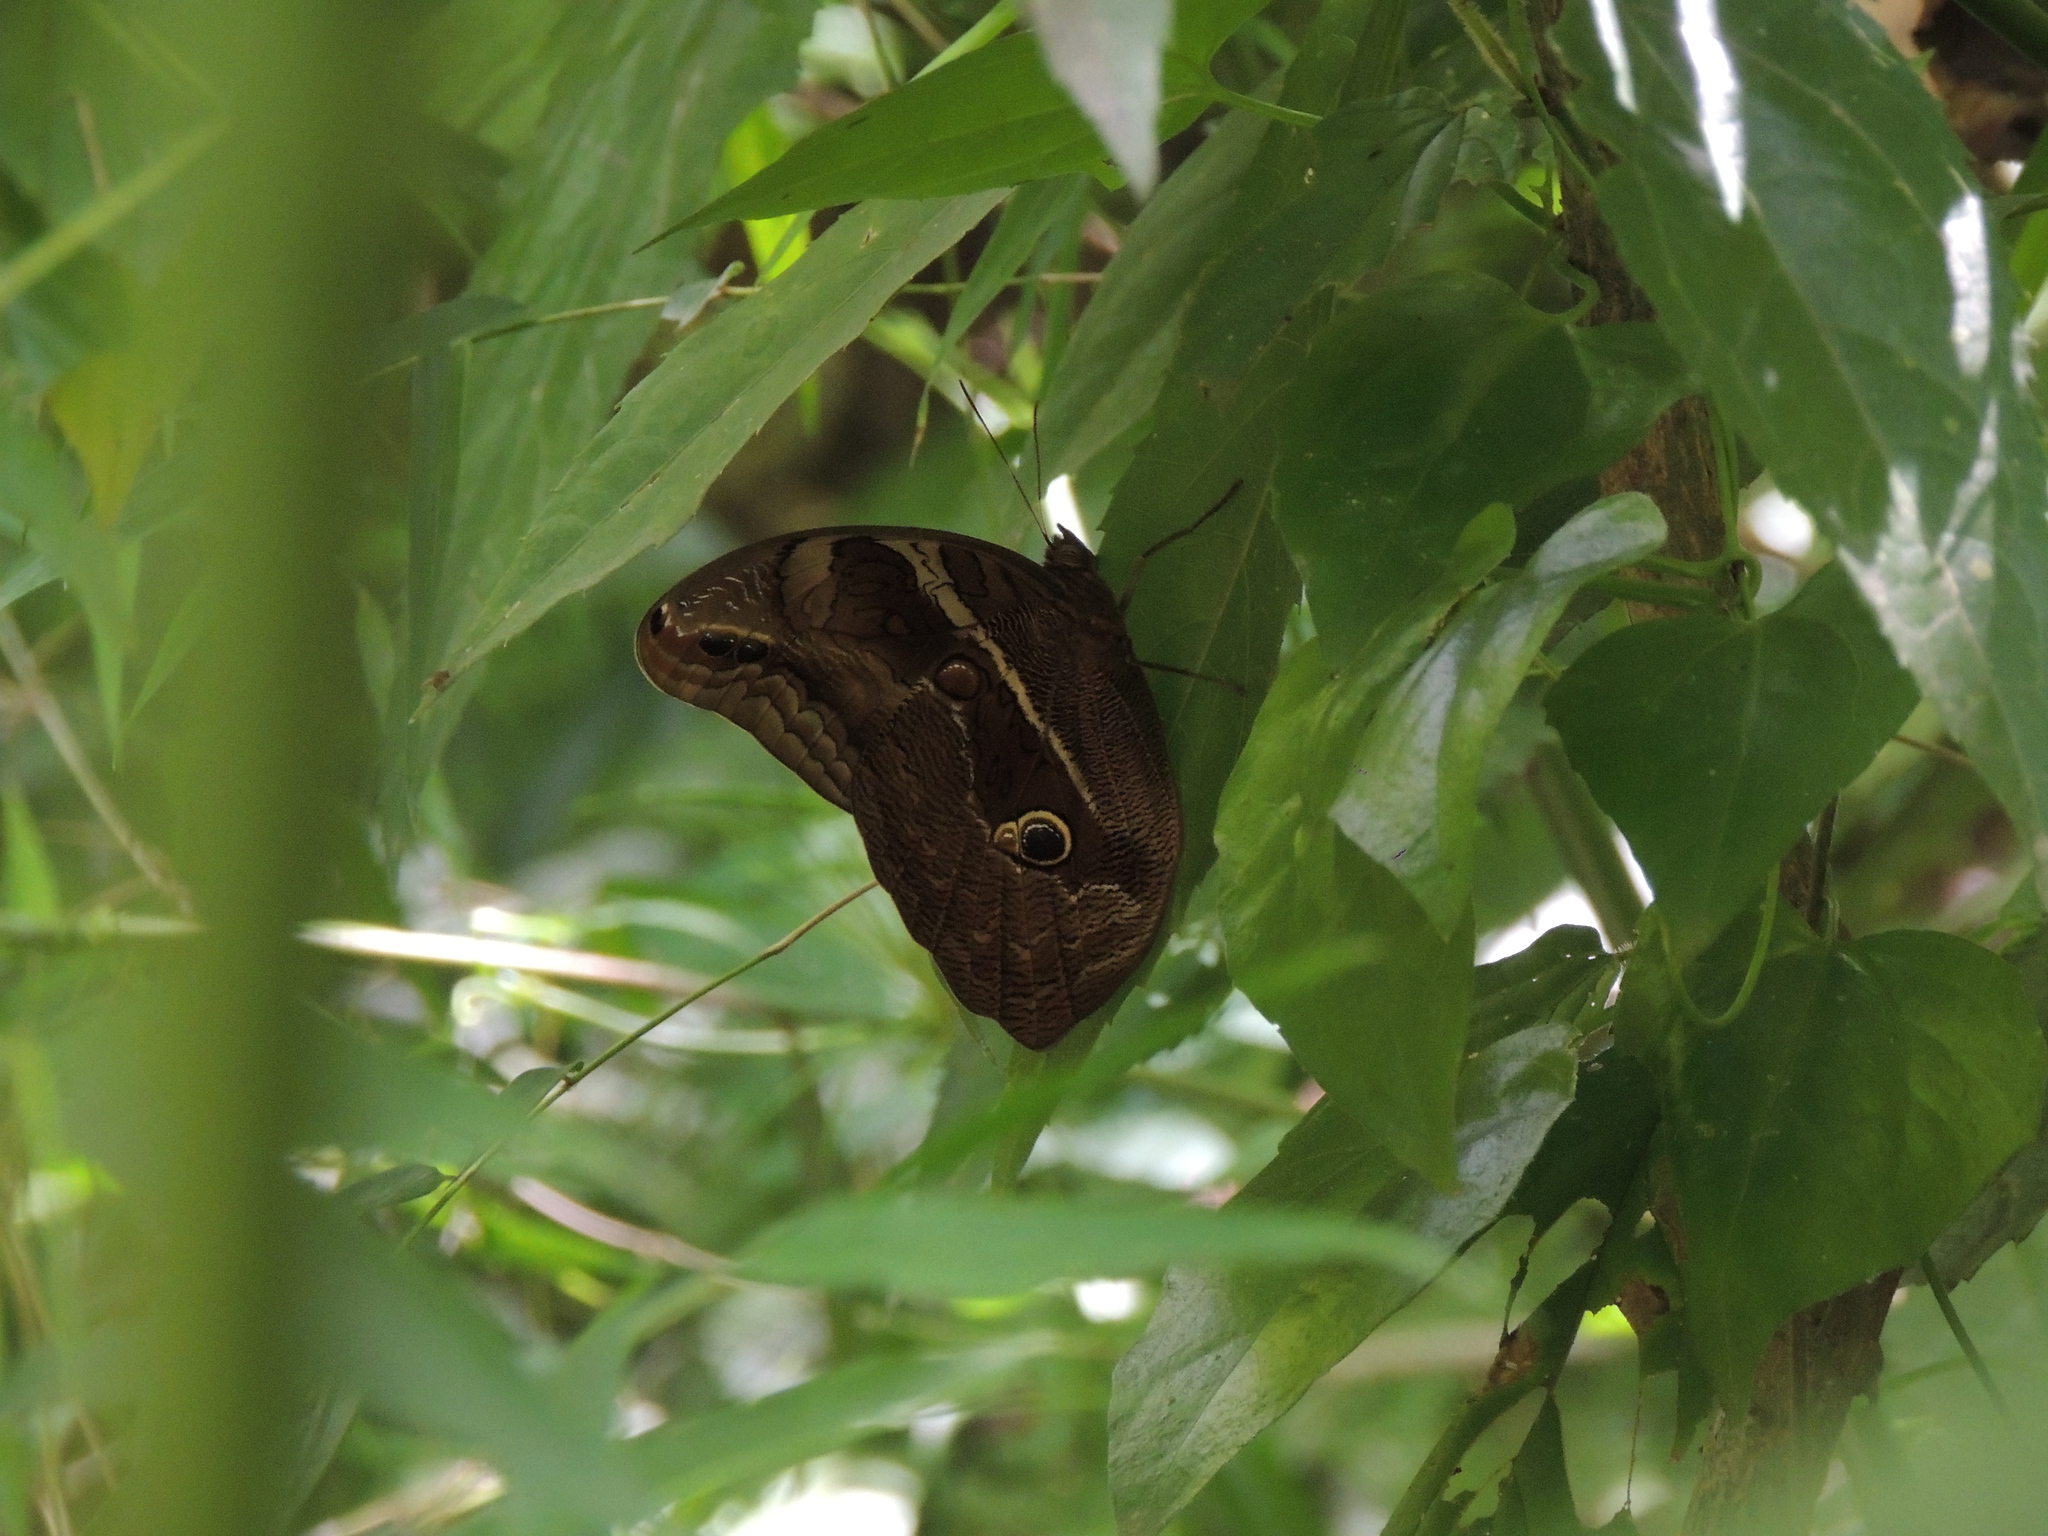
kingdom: Animalia
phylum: Arthropoda
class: Insecta
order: Lepidoptera
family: Nymphalidae
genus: Eryphanis
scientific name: Eryphanis reevesii
